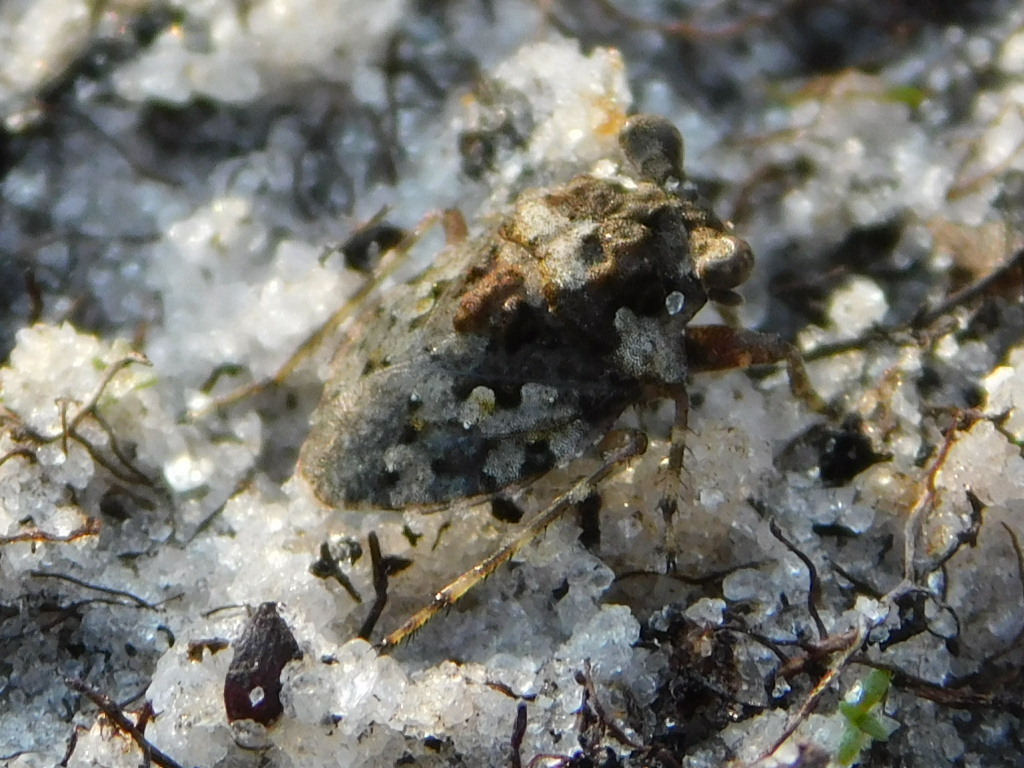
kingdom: Animalia
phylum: Arthropoda
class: Insecta
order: Hemiptera
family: Gelastocoridae
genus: Gelastocoris
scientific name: Gelastocoris oculatus
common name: Toad bug
